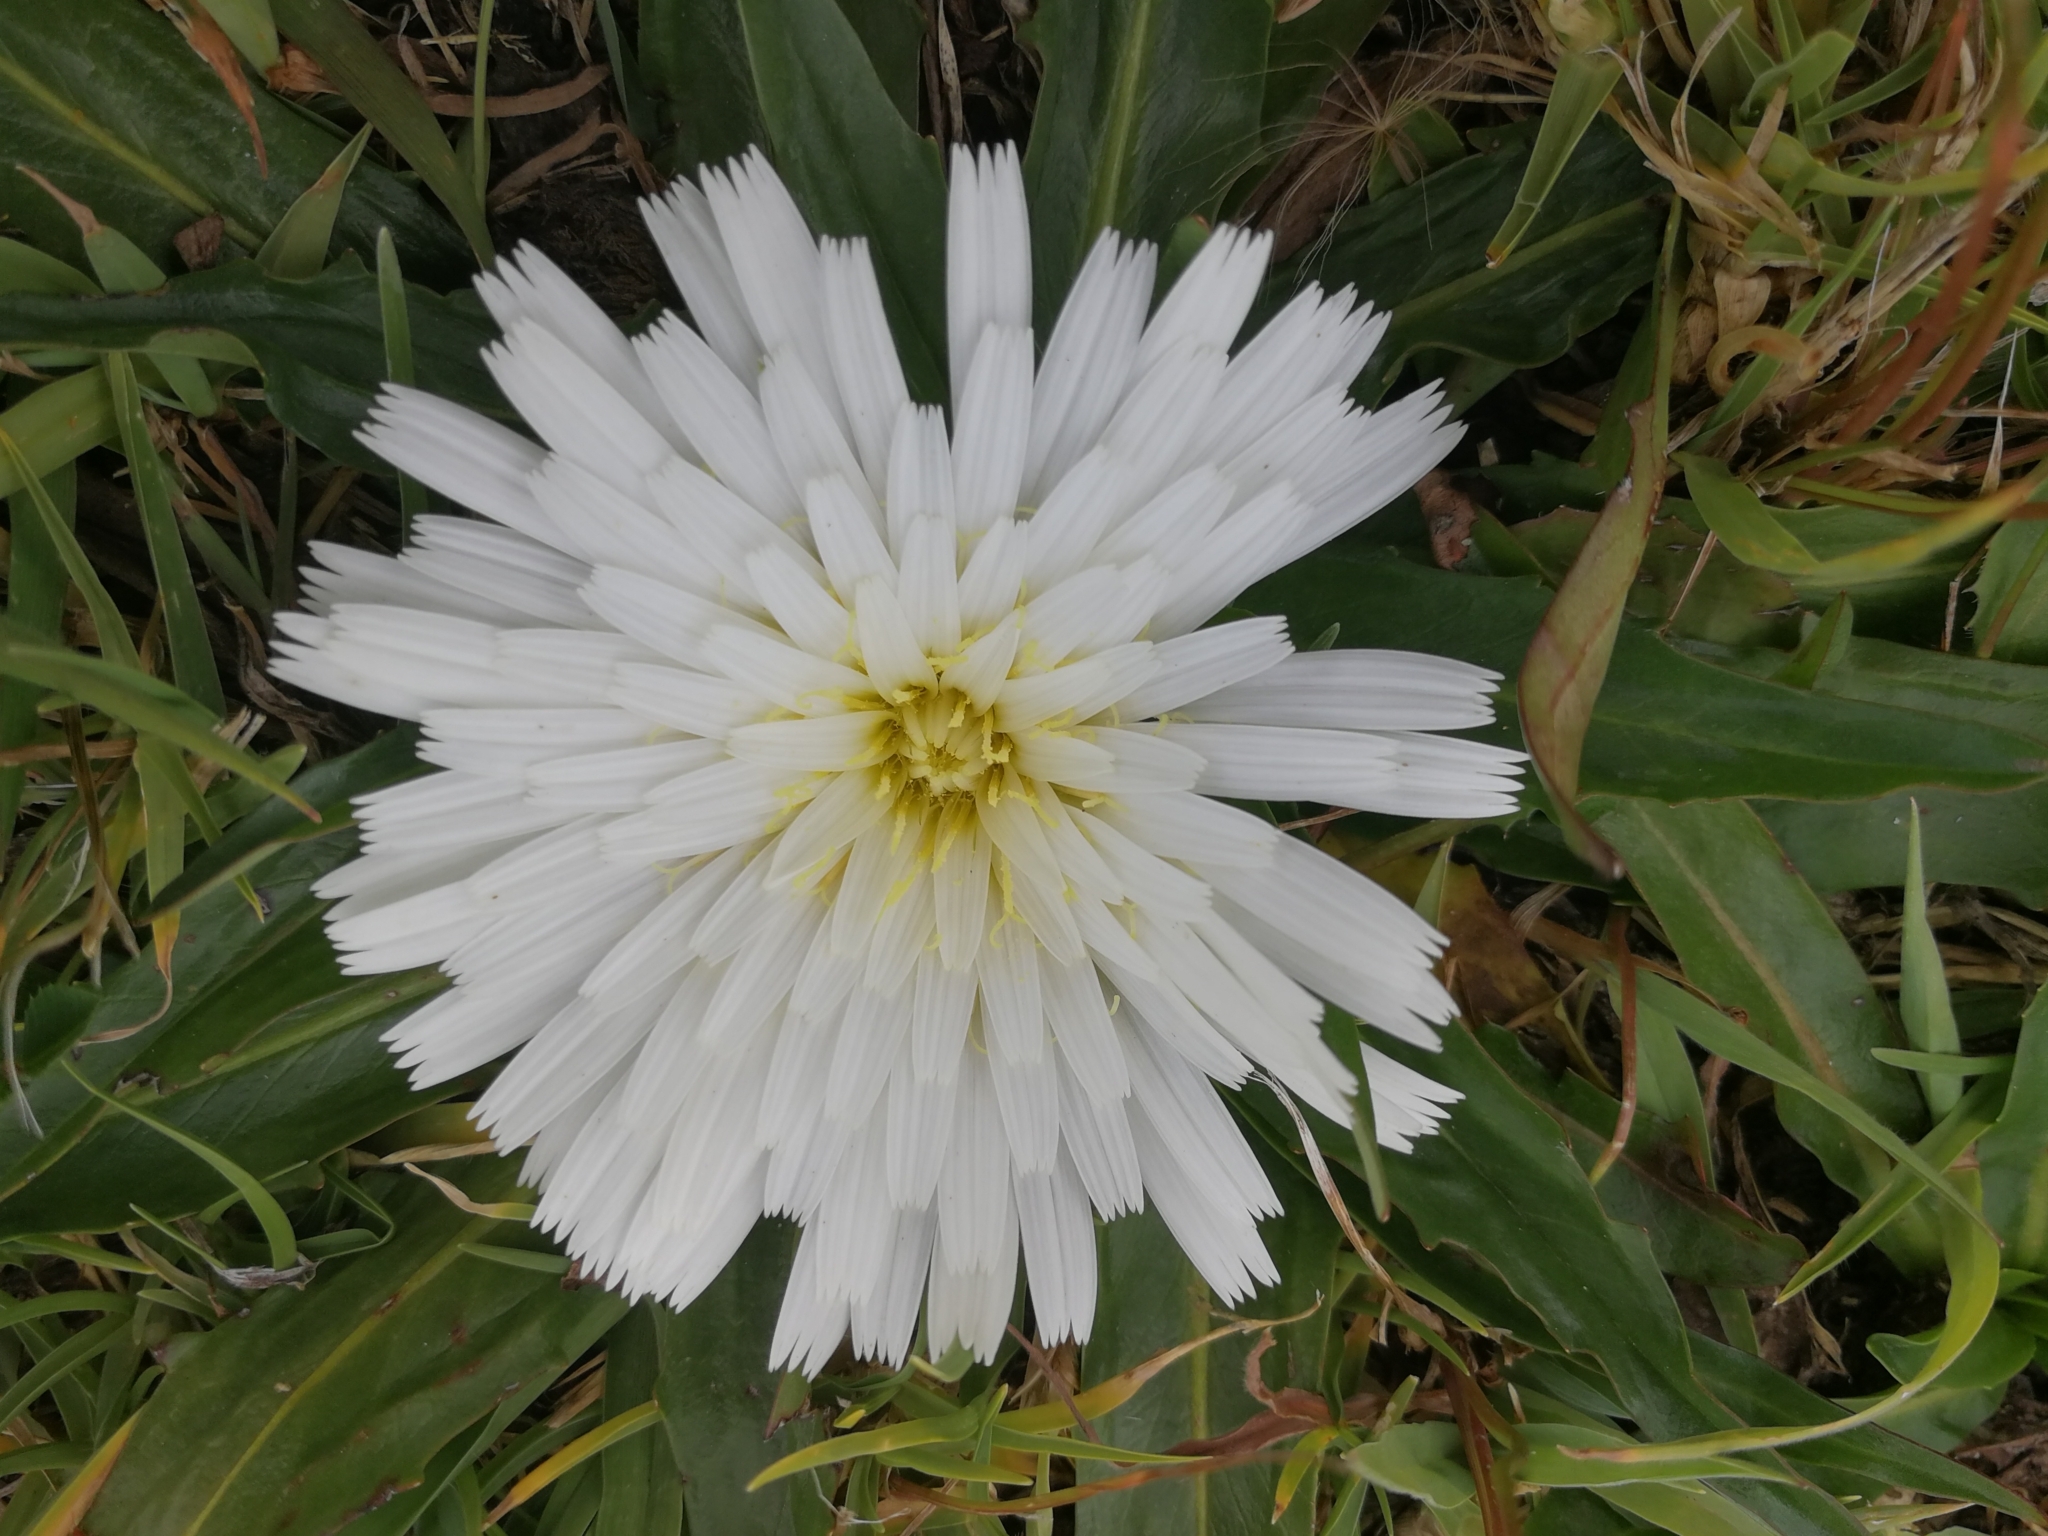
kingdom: Plantae
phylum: Tracheophyta
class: Magnoliopsida
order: Asterales
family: Asteraceae
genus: Hypochaeris
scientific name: Hypochaeris sessiliflora
